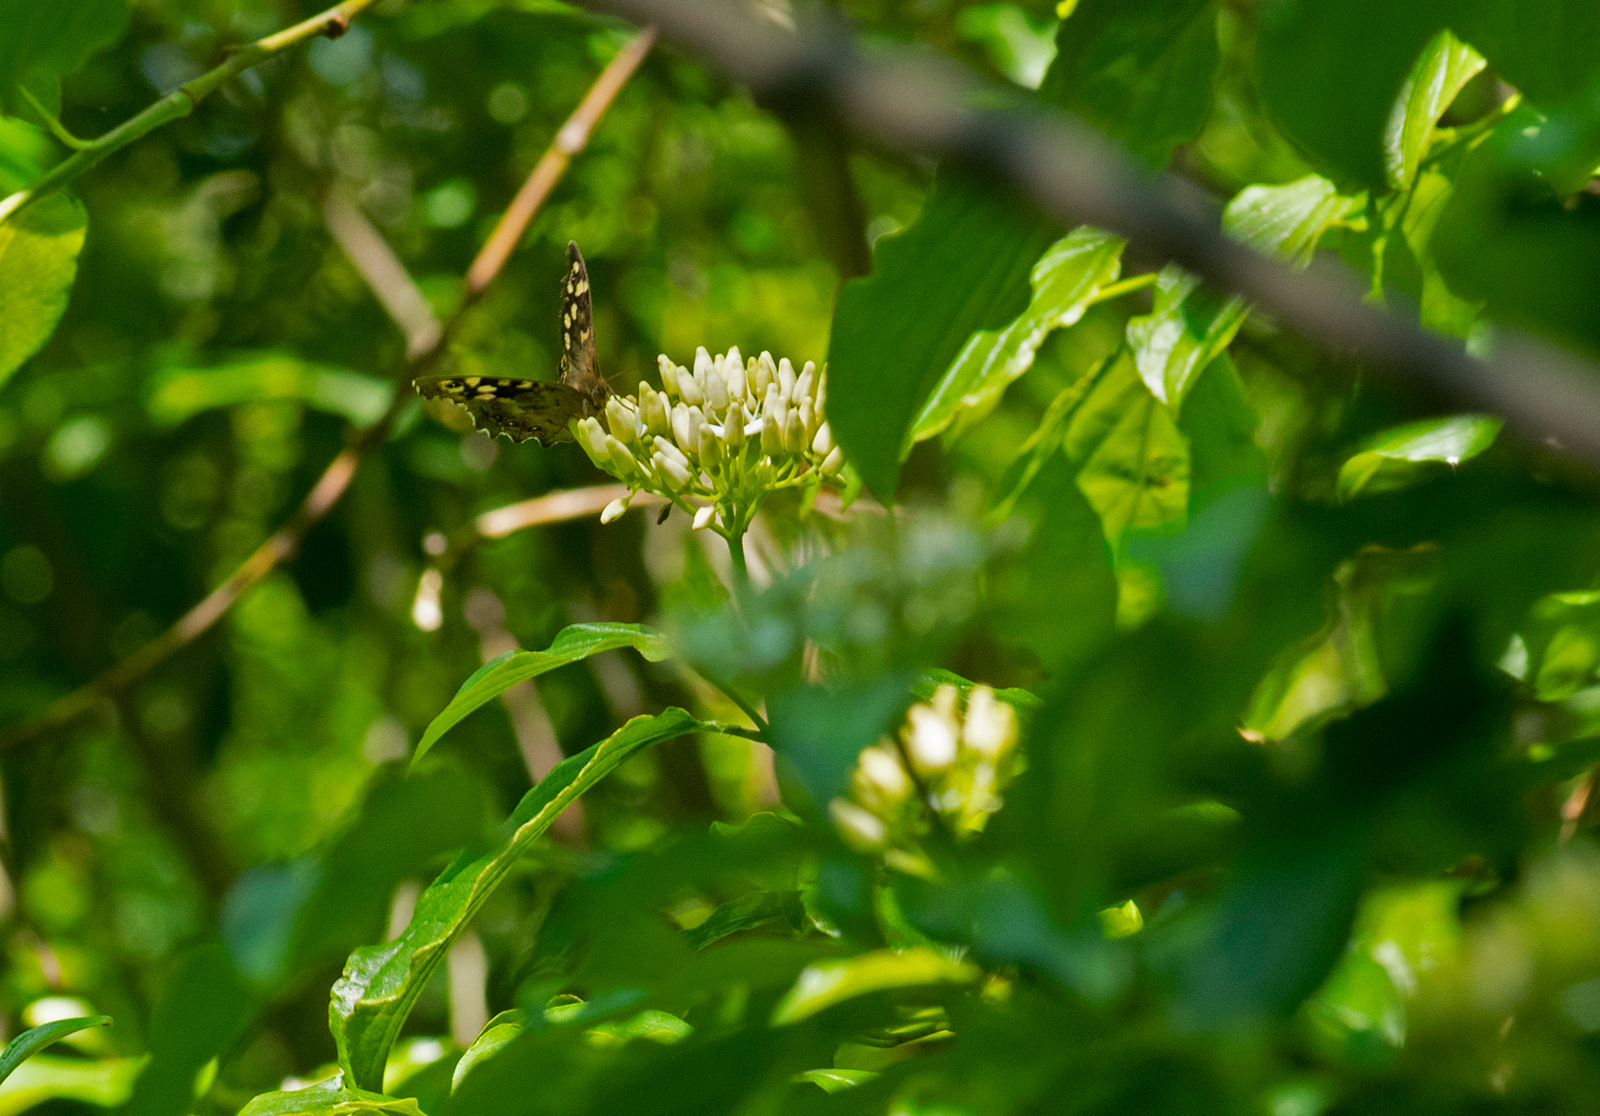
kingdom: Animalia
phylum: Arthropoda
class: Insecta
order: Lepidoptera
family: Nymphalidae
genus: Pararge
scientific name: Pararge aegeria
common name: Speckled wood
